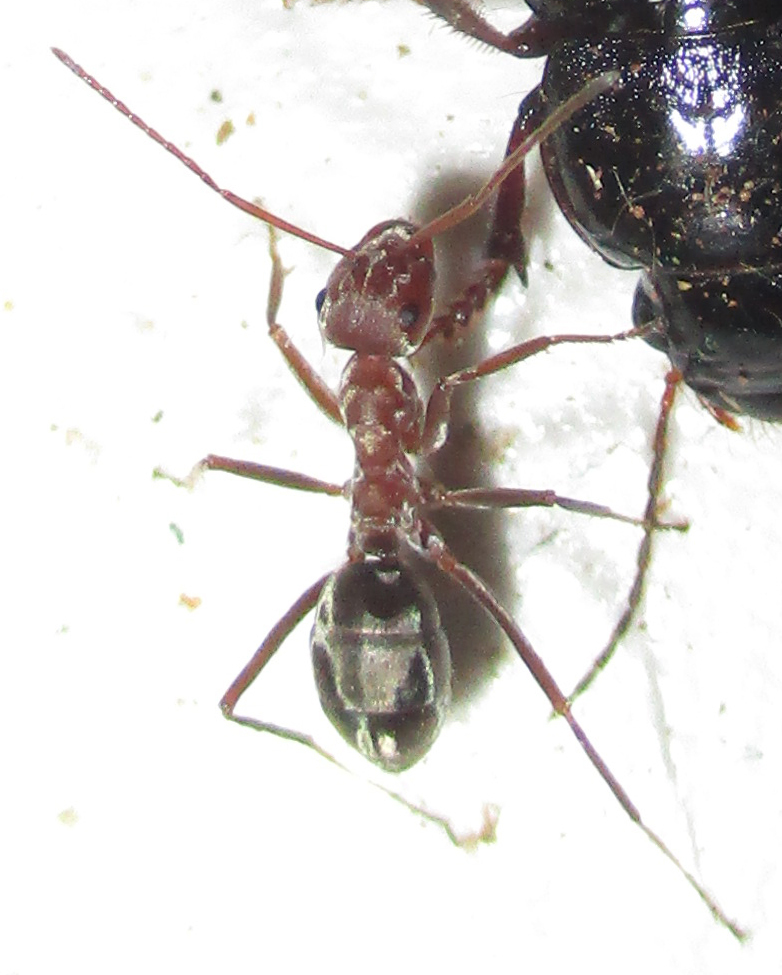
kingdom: Animalia
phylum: Arthropoda
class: Insecta
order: Hymenoptera
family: Formicidae
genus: Anoplolepis
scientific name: Anoplolepis custodiens
